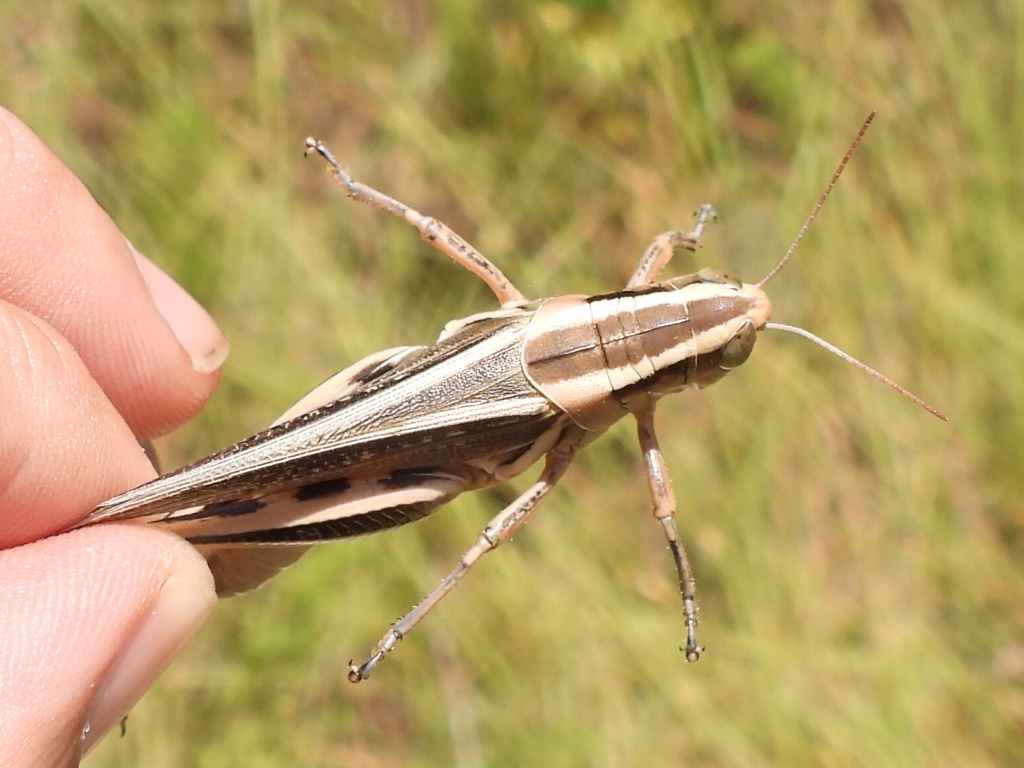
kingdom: Animalia
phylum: Arthropoda
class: Insecta
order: Orthoptera
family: Acrididae
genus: Melanoplus
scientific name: Melanoplus bivittatus
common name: Two-striped grasshopper
